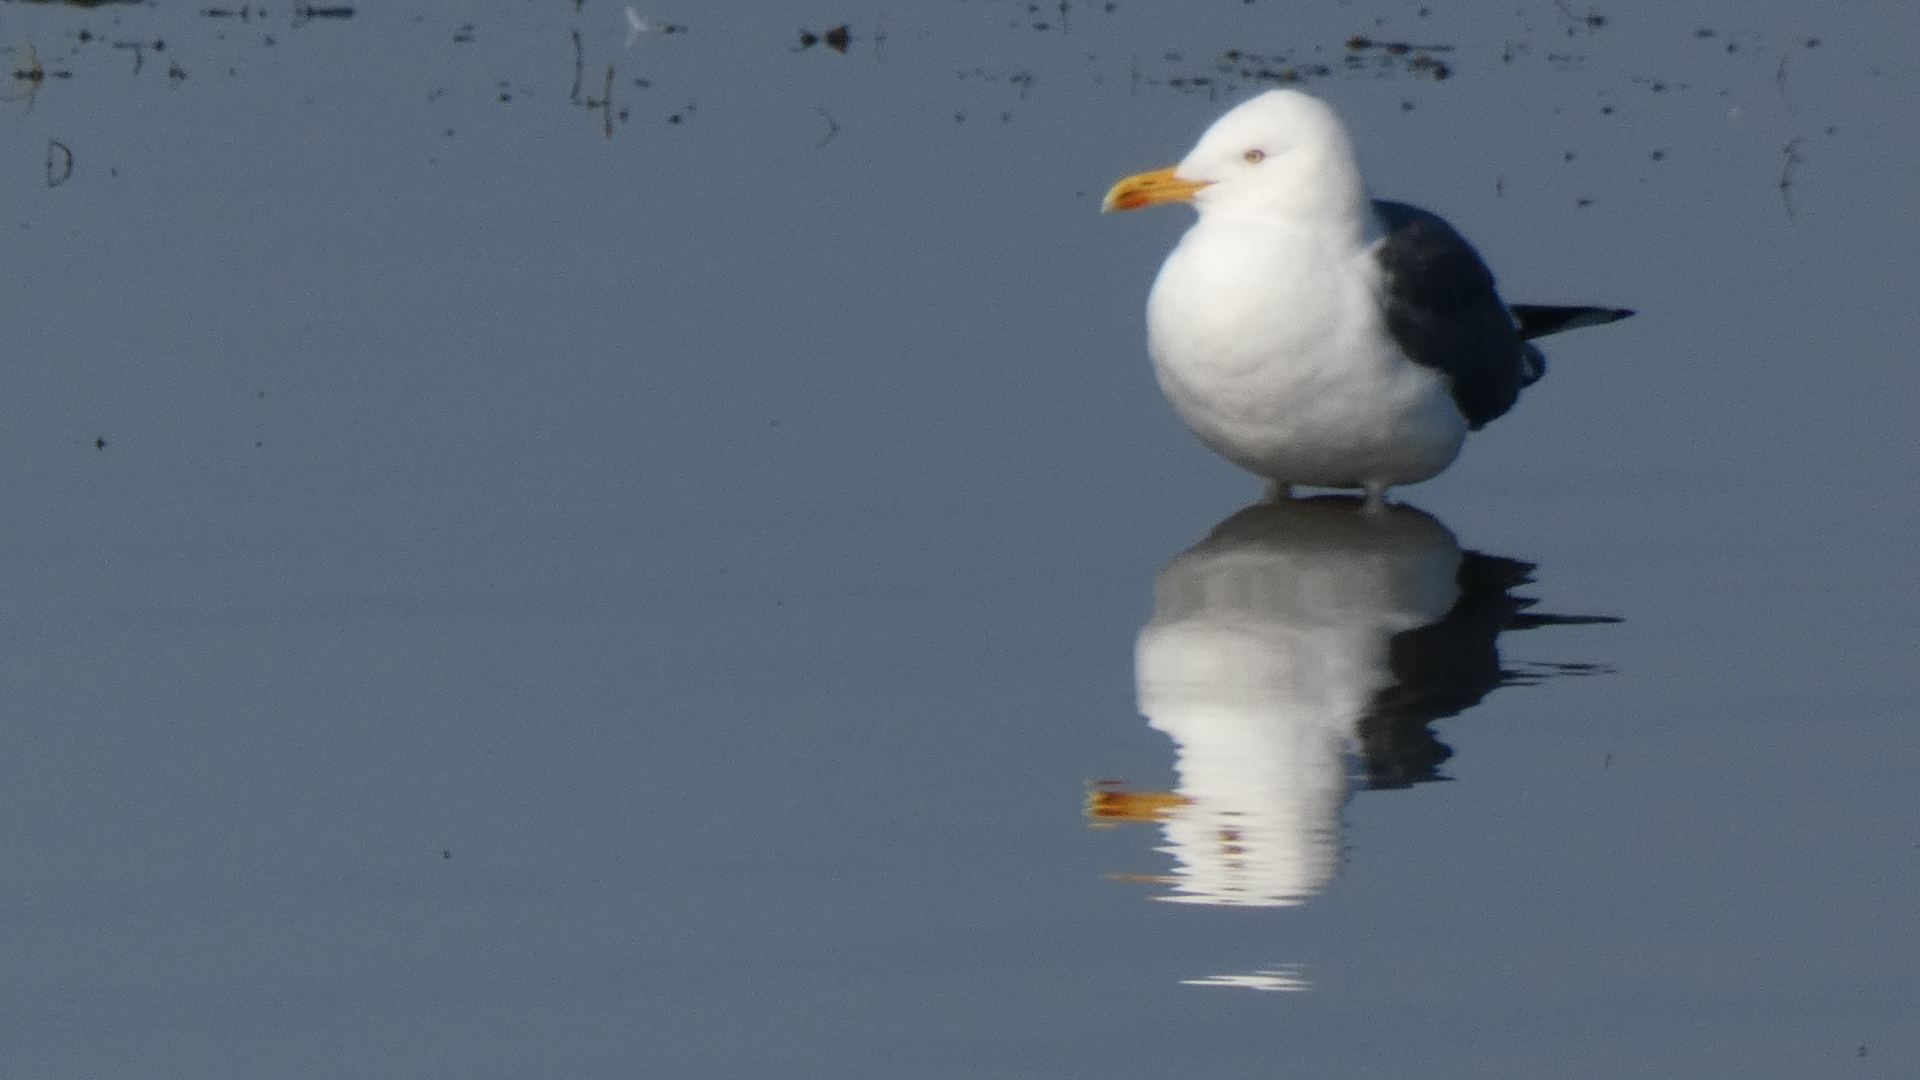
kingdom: Animalia
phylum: Chordata
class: Aves
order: Charadriiformes
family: Laridae
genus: Larus
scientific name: Larus marinus
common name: Great black-backed gull
